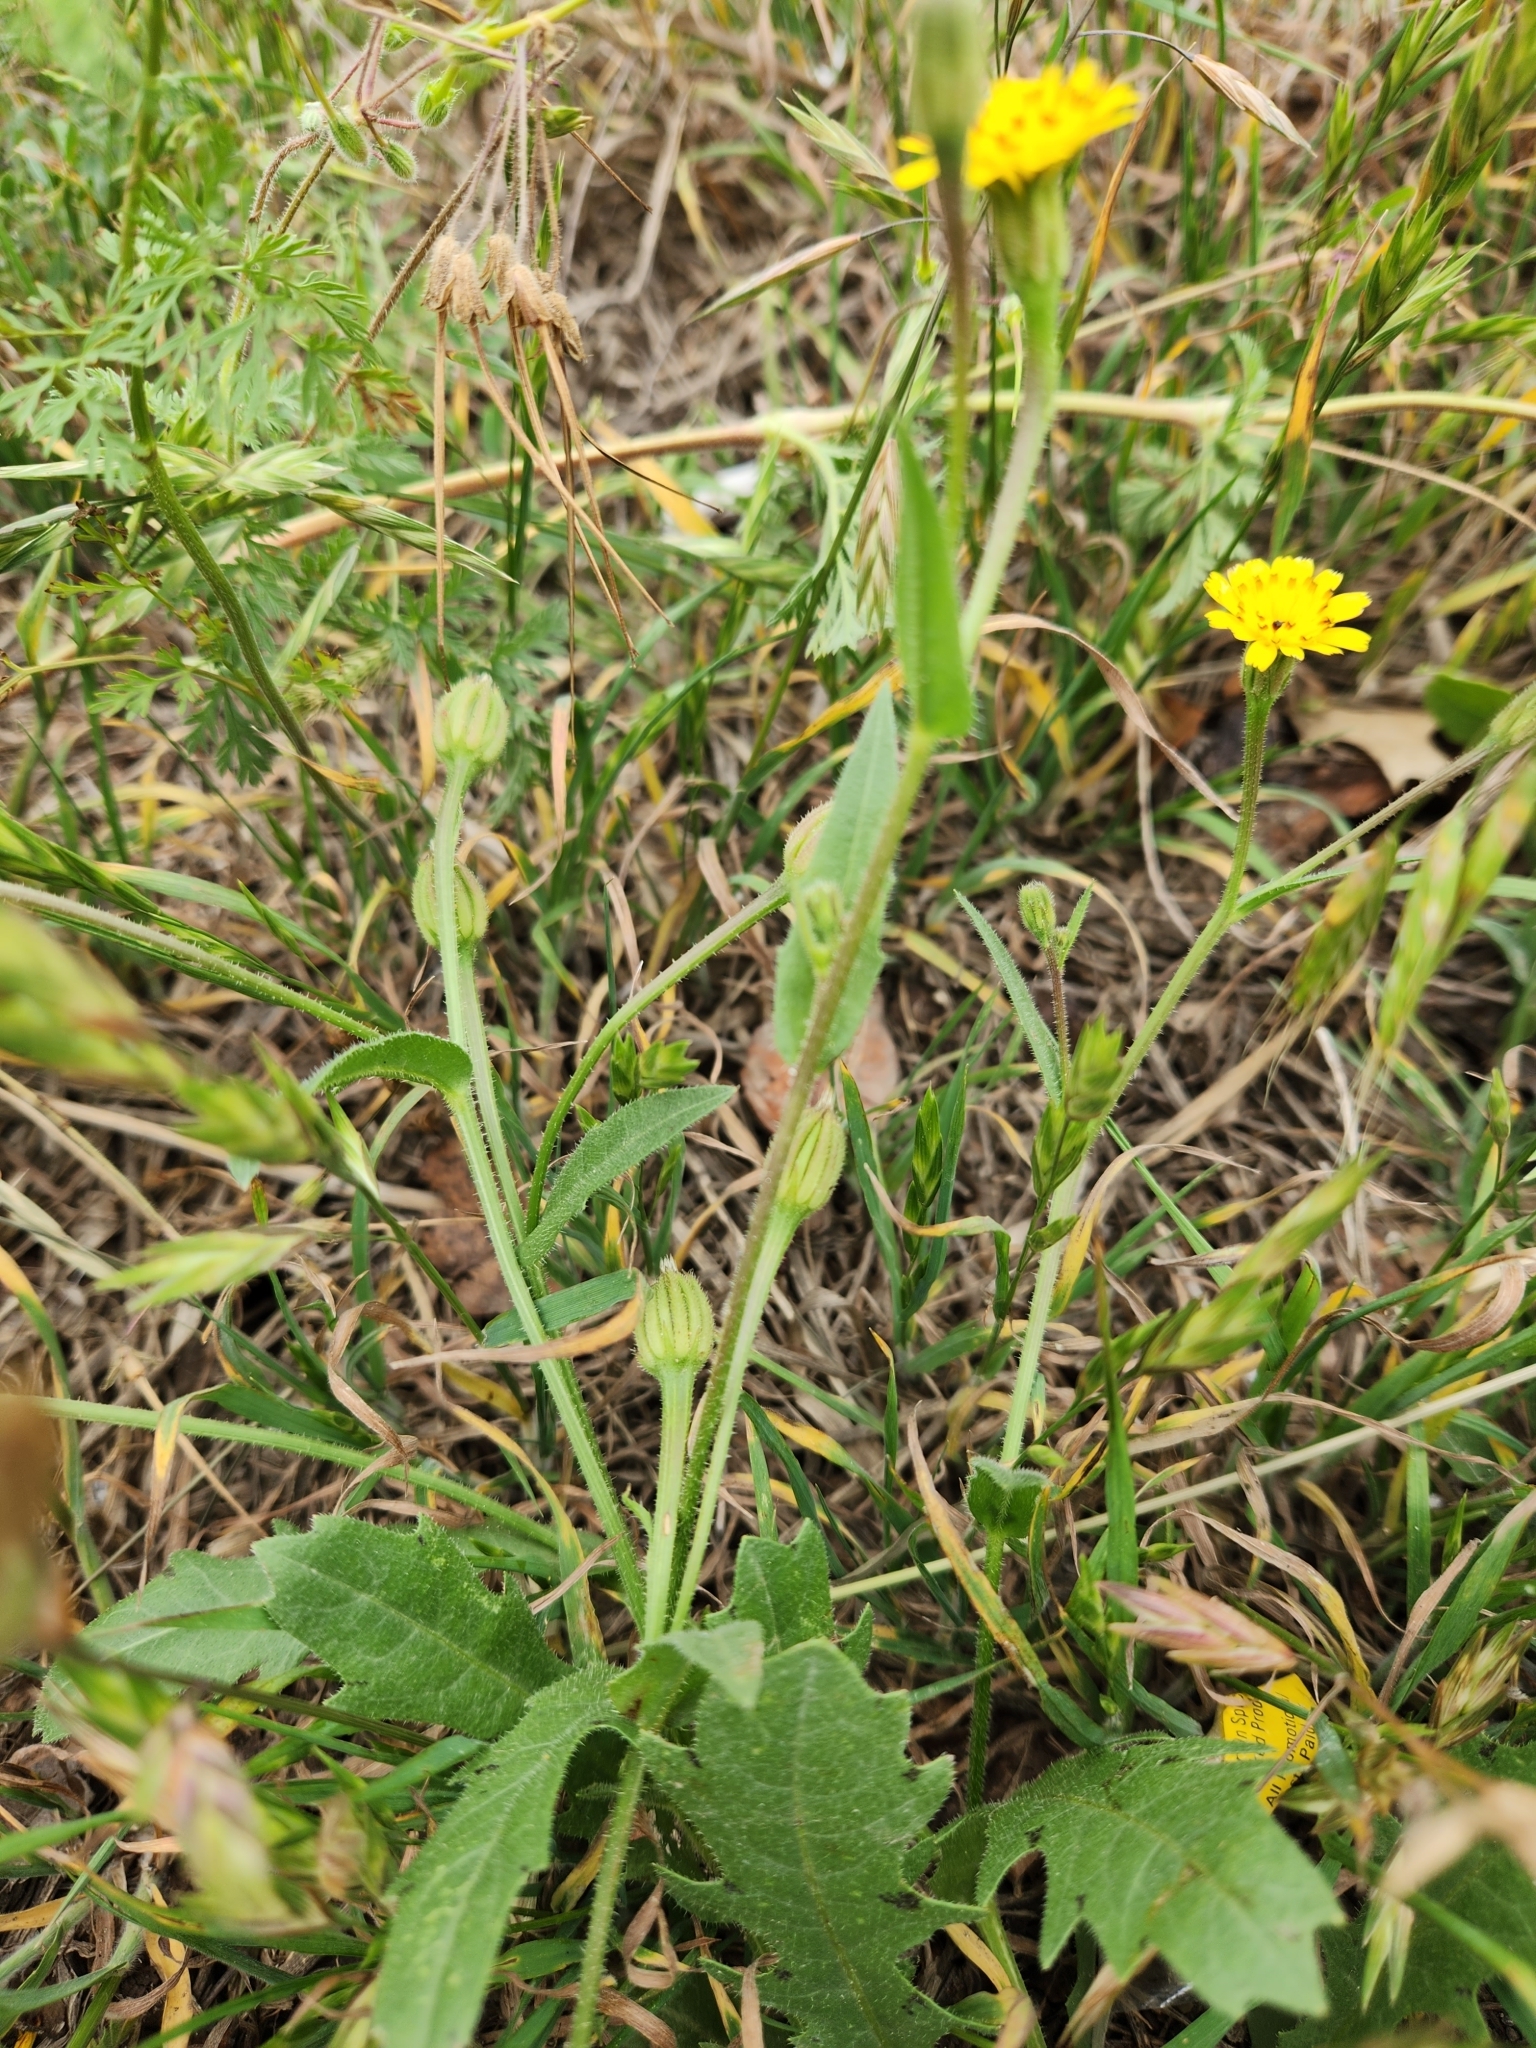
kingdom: Plantae
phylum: Tracheophyta
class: Magnoliopsida
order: Asterales
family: Asteraceae
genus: Hedypnois
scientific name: Hedypnois rhagadioloides
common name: Cretan weed
